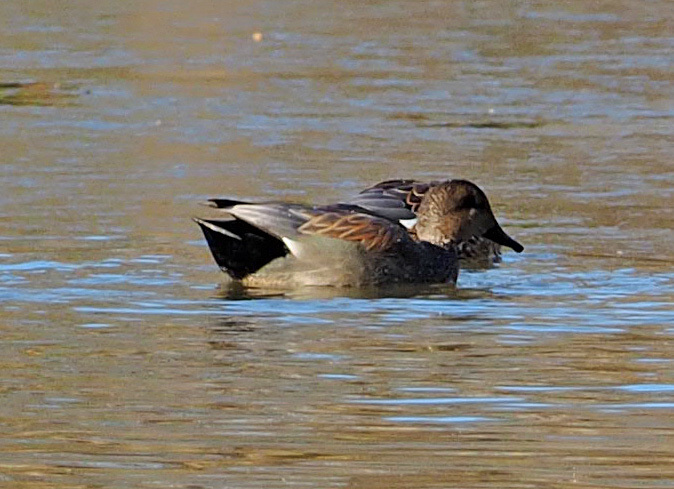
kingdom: Animalia
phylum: Chordata
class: Aves
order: Anseriformes
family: Anatidae
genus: Mareca
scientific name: Mareca strepera
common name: Gadwall
